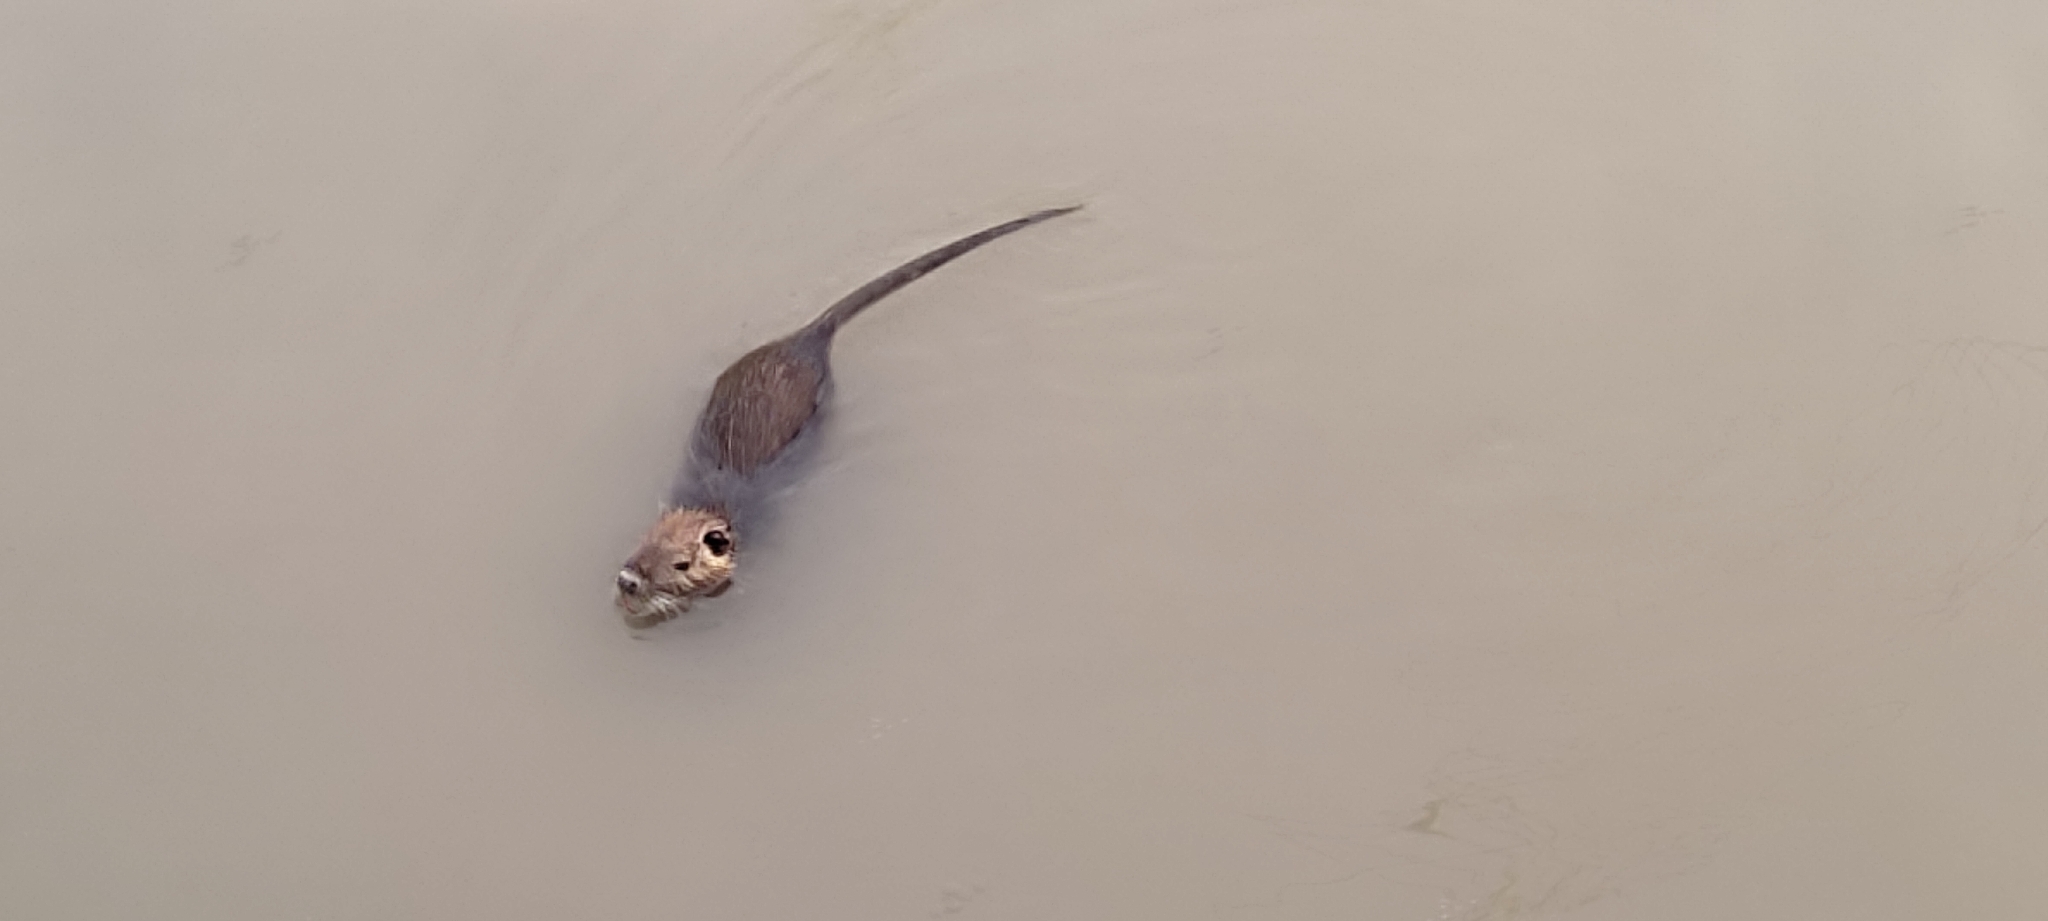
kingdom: Animalia
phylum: Chordata
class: Mammalia
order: Rodentia
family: Myocastoridae
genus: Myocastor
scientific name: Myocastor coypus
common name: Coypu
